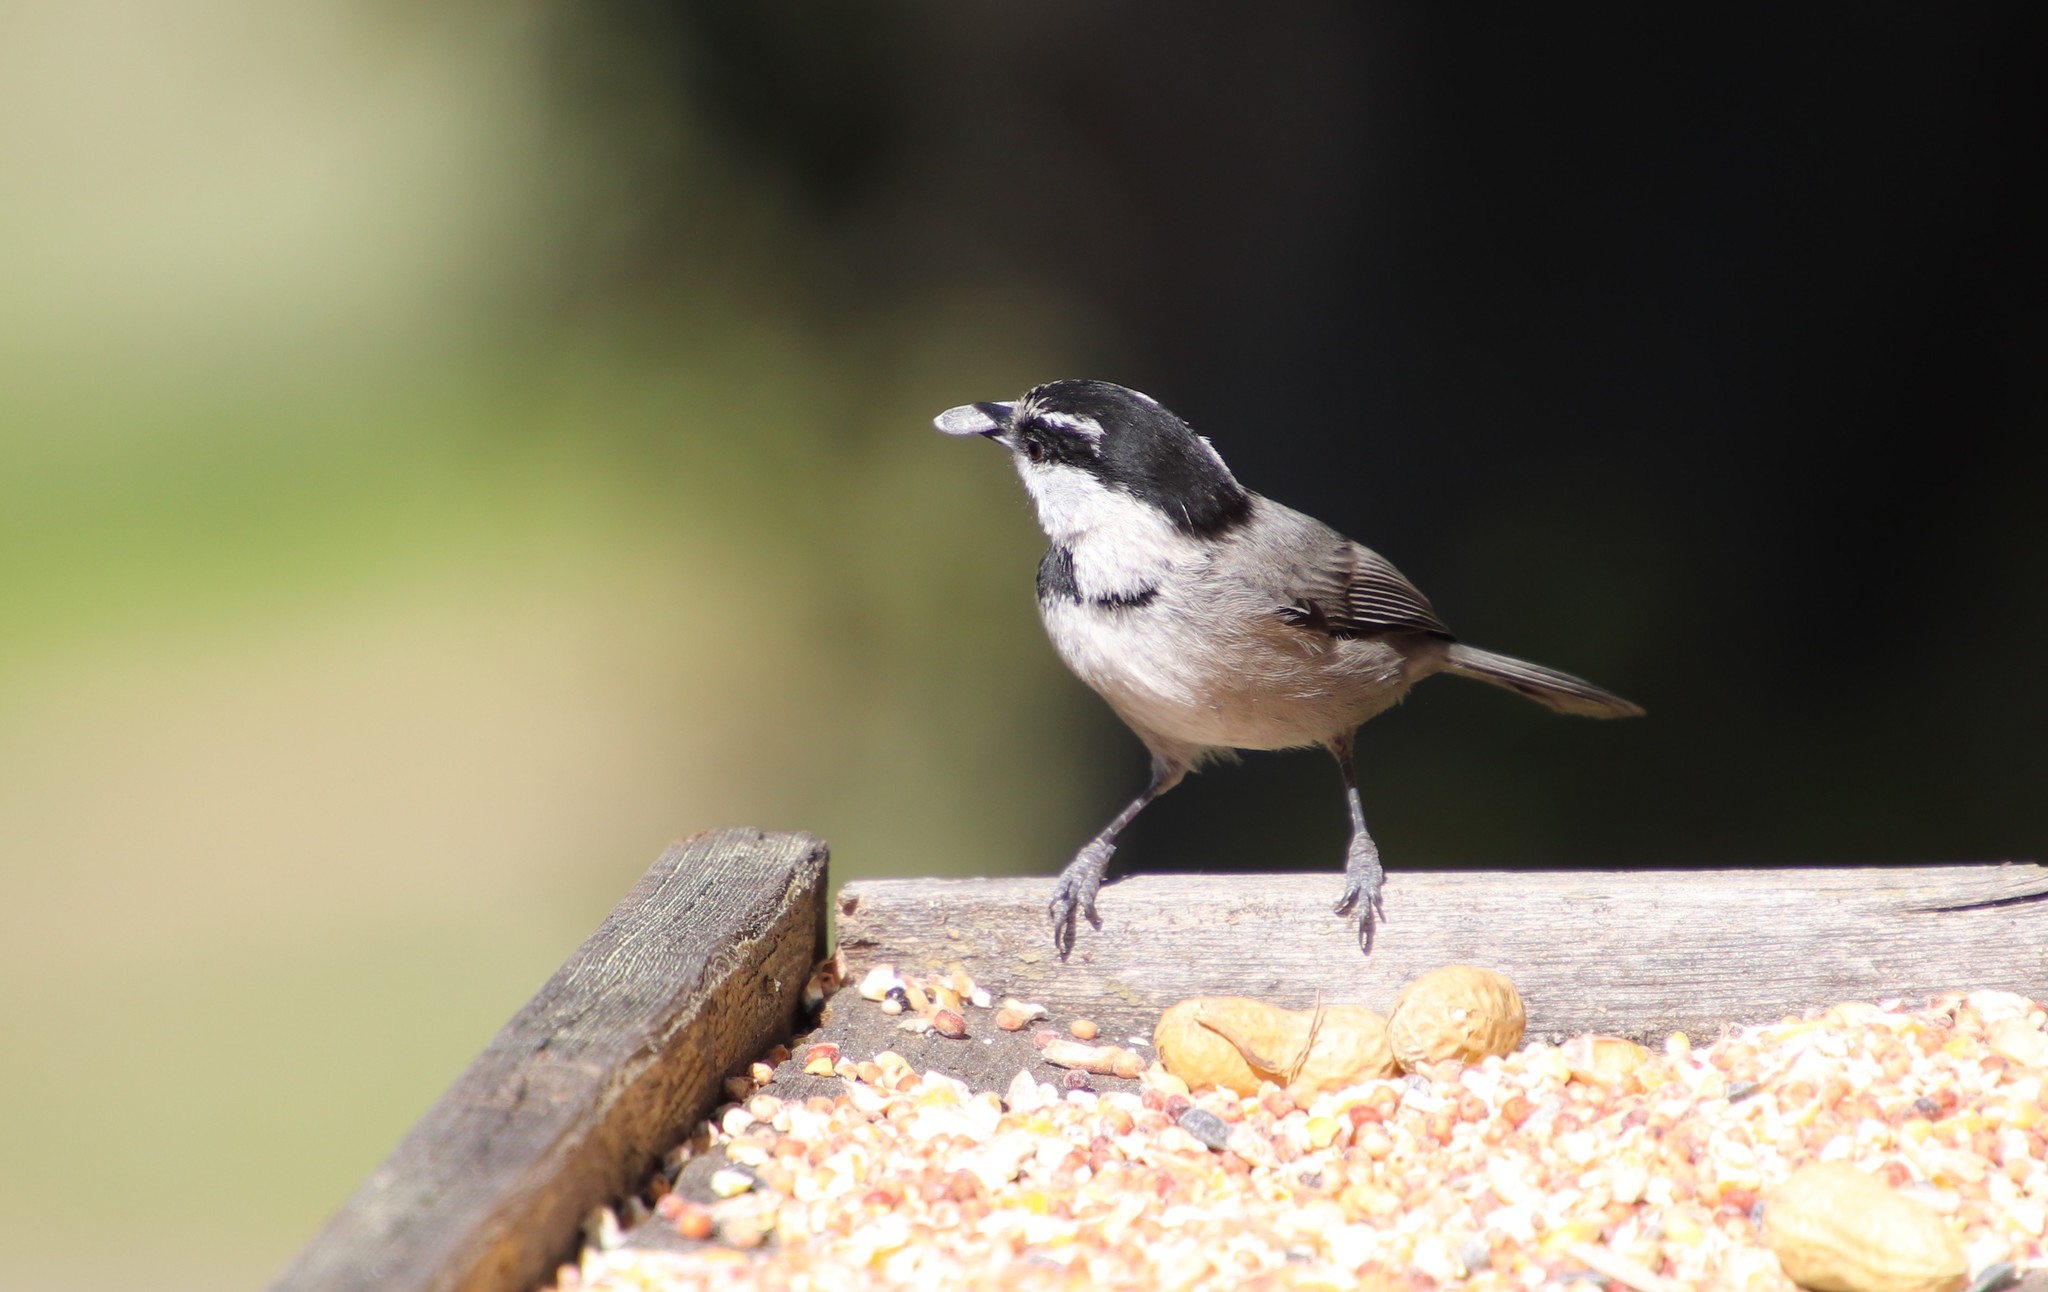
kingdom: Animalia
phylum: Chordata
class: Aves
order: Passeriformes
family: Paridae
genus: Poecile
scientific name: Poecile gambeli
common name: Mountain chickadee
